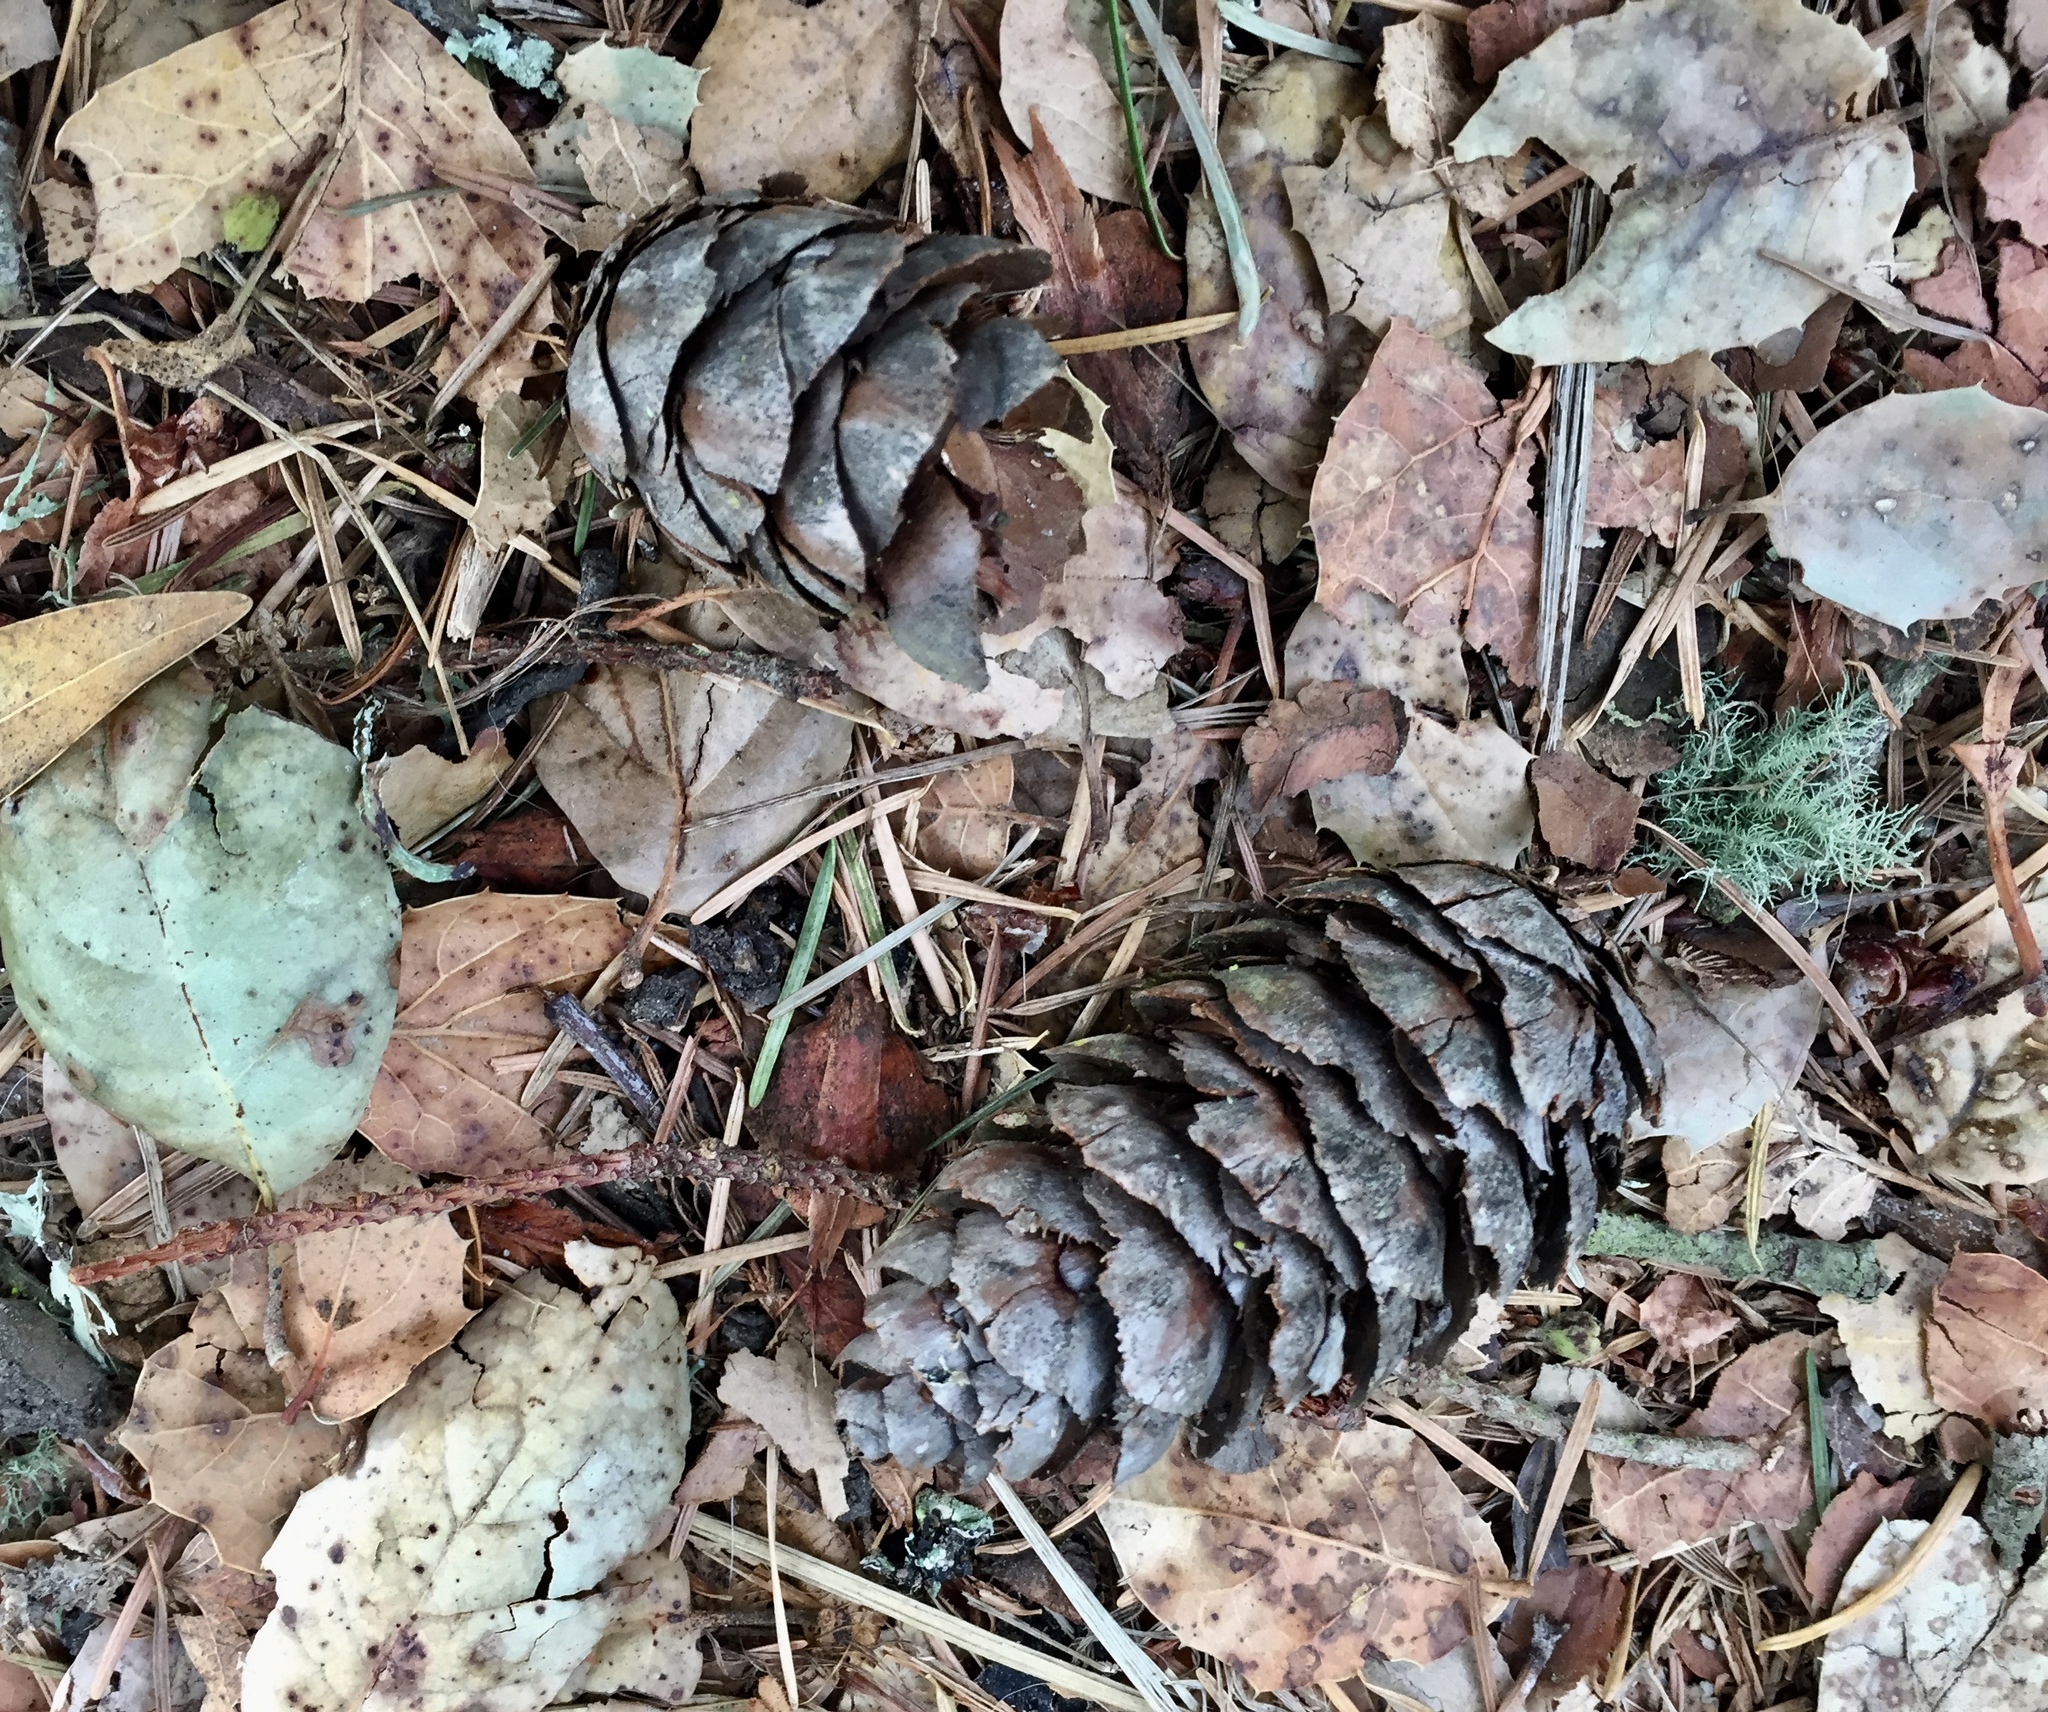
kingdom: Plantae
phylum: Tracheophyta
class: Pinopsida
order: Pinales
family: Pinaceae
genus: Pseudotsuga
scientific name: Pseudotsuga menziesii
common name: Douglas fir
